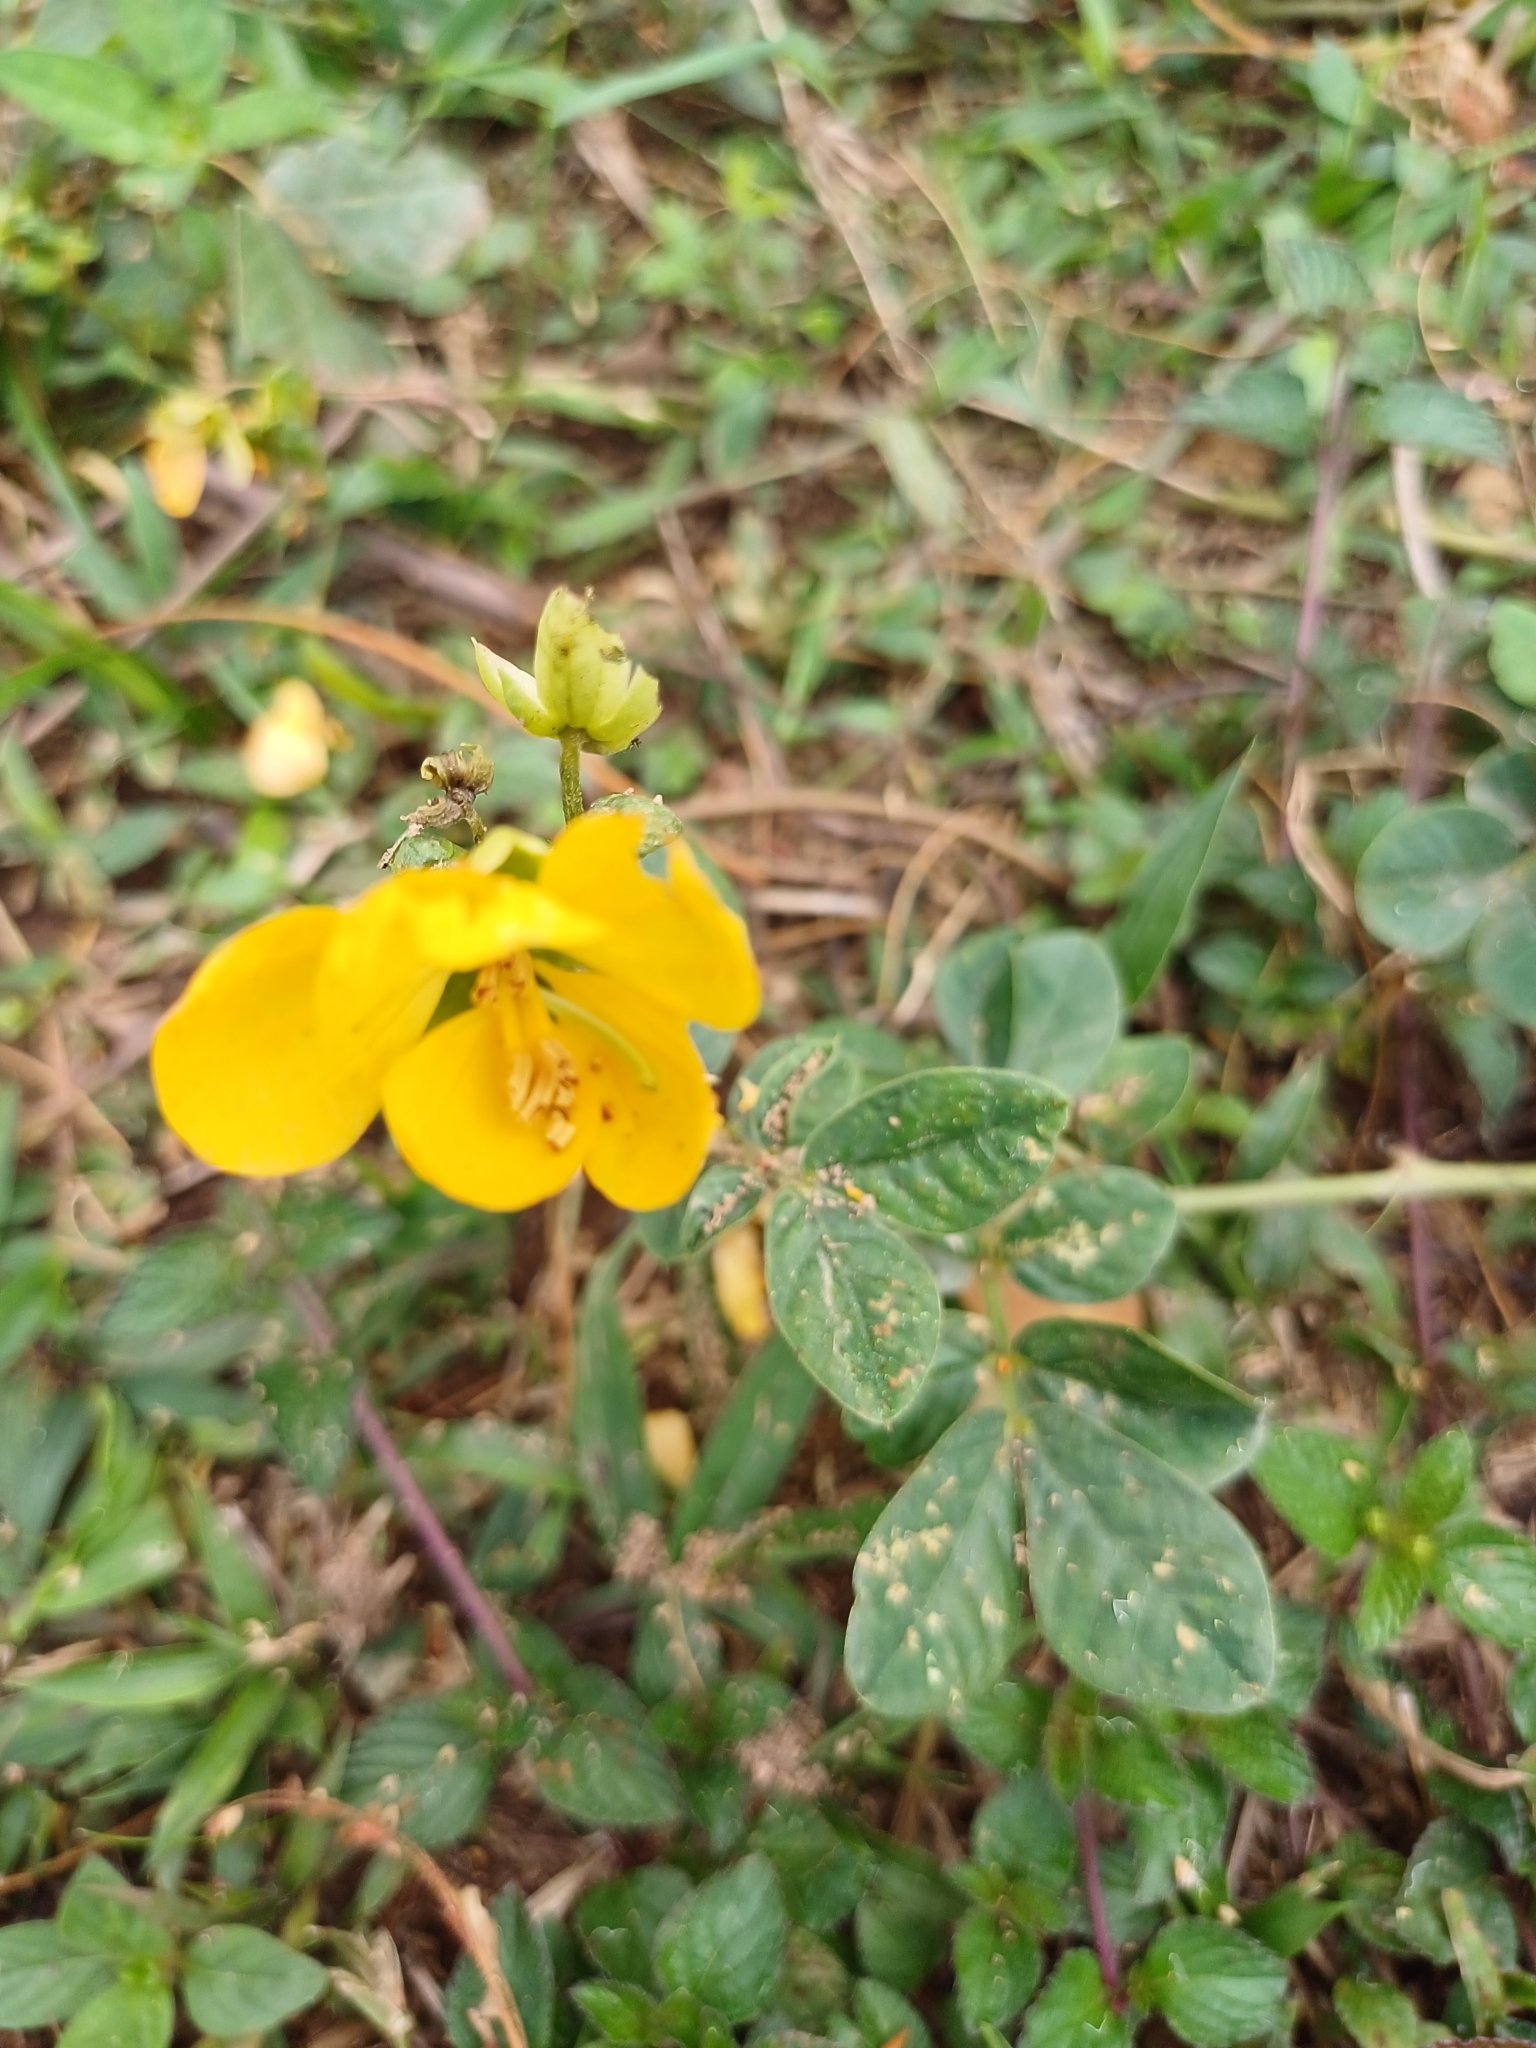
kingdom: Plantae
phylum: Tracheophyta
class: Magnoliopsida
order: Fabales
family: Fabaceae
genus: Senna
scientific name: Senna occidentalis
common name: Septicweed
